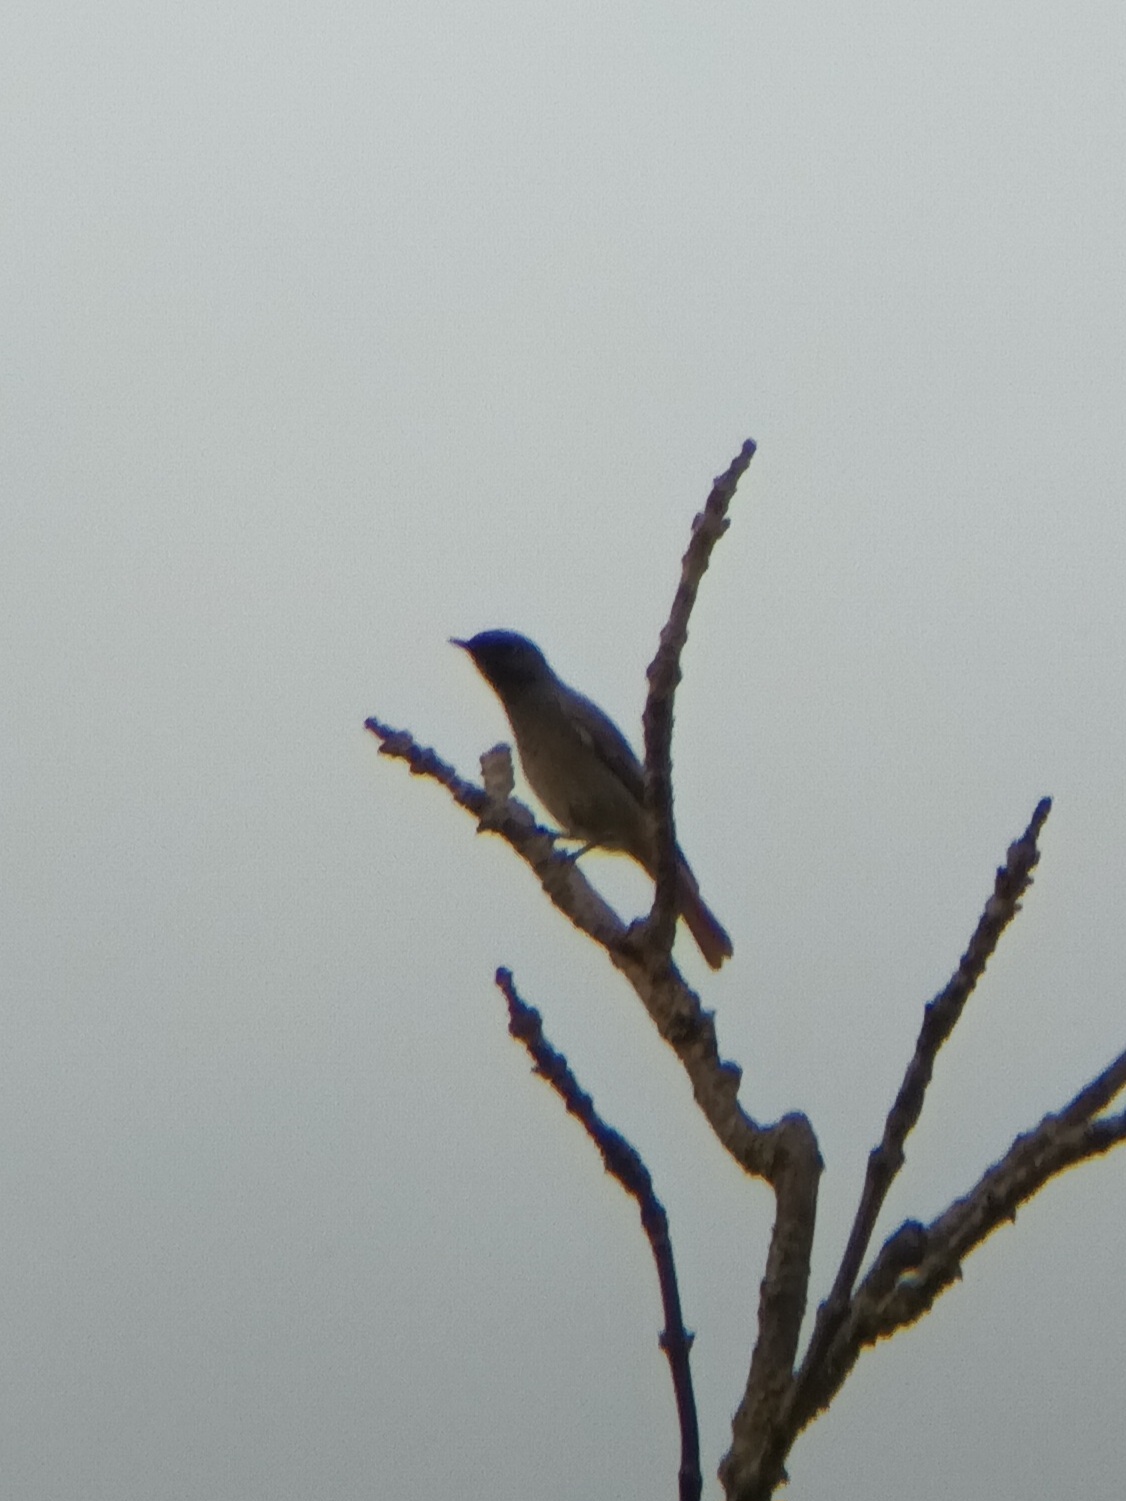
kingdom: Animalia
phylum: Chordata
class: Aves
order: Passeriformes
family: Muscicapidae
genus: Phoenicurus
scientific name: Phoenicurus ochruros
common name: Black redstart
